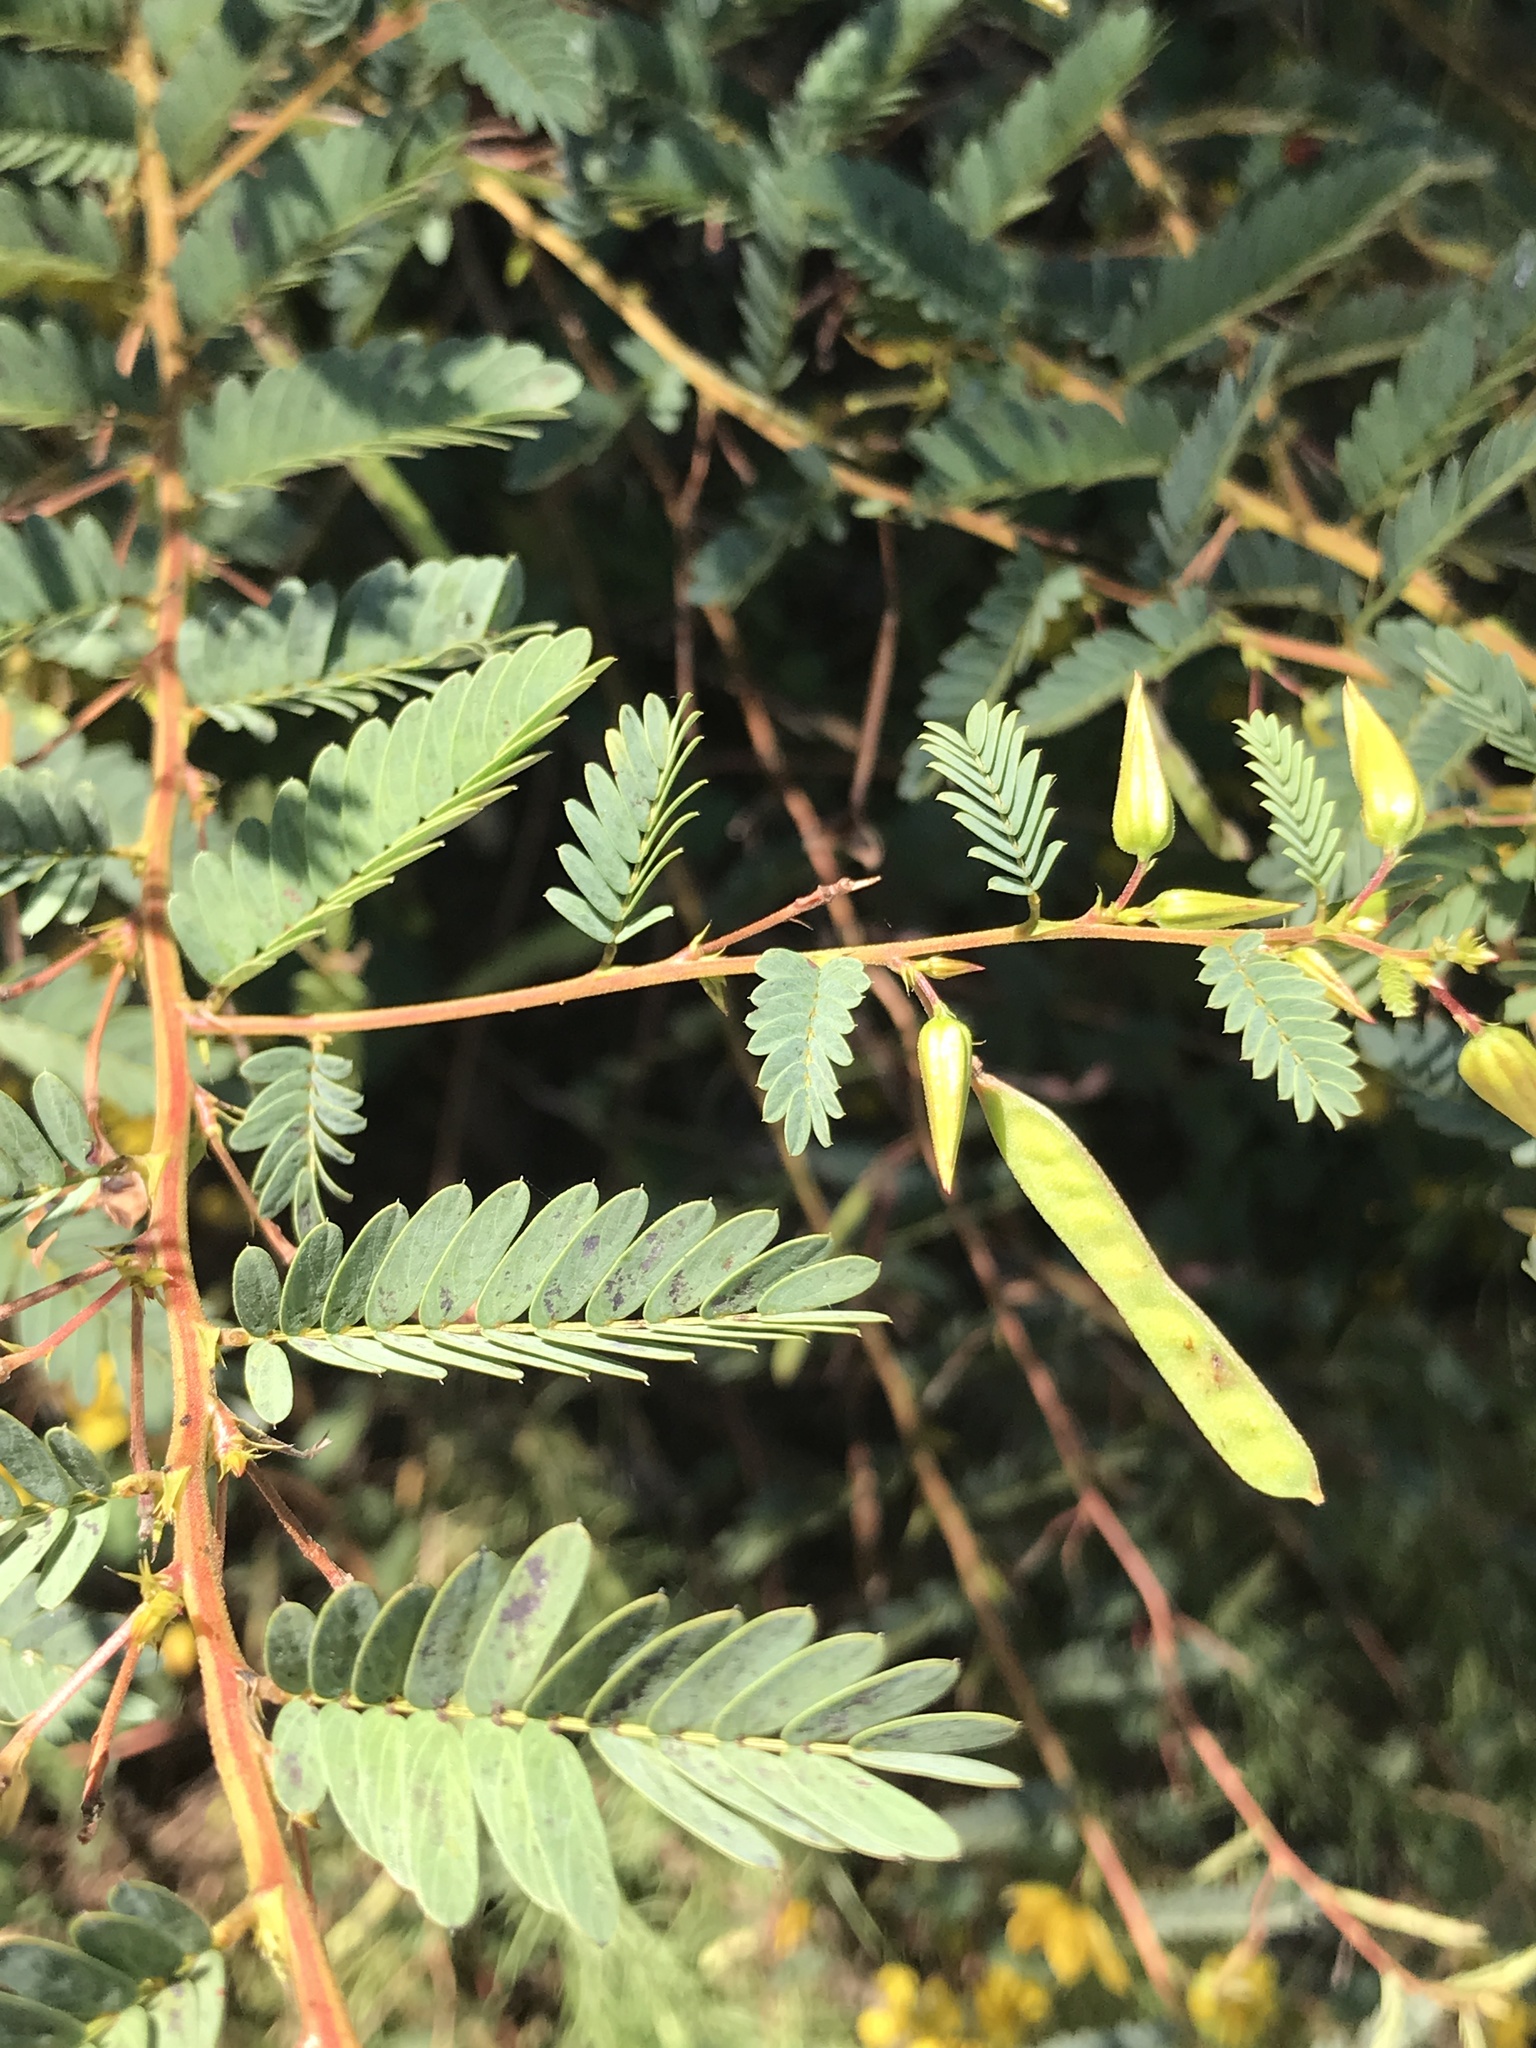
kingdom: Plantae
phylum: Tracheophyta
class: Magnoliopsida
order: Fabales
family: Fabaceae
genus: Chamaecrista
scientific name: Chamaecrista fasciculata
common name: Golden cassia
